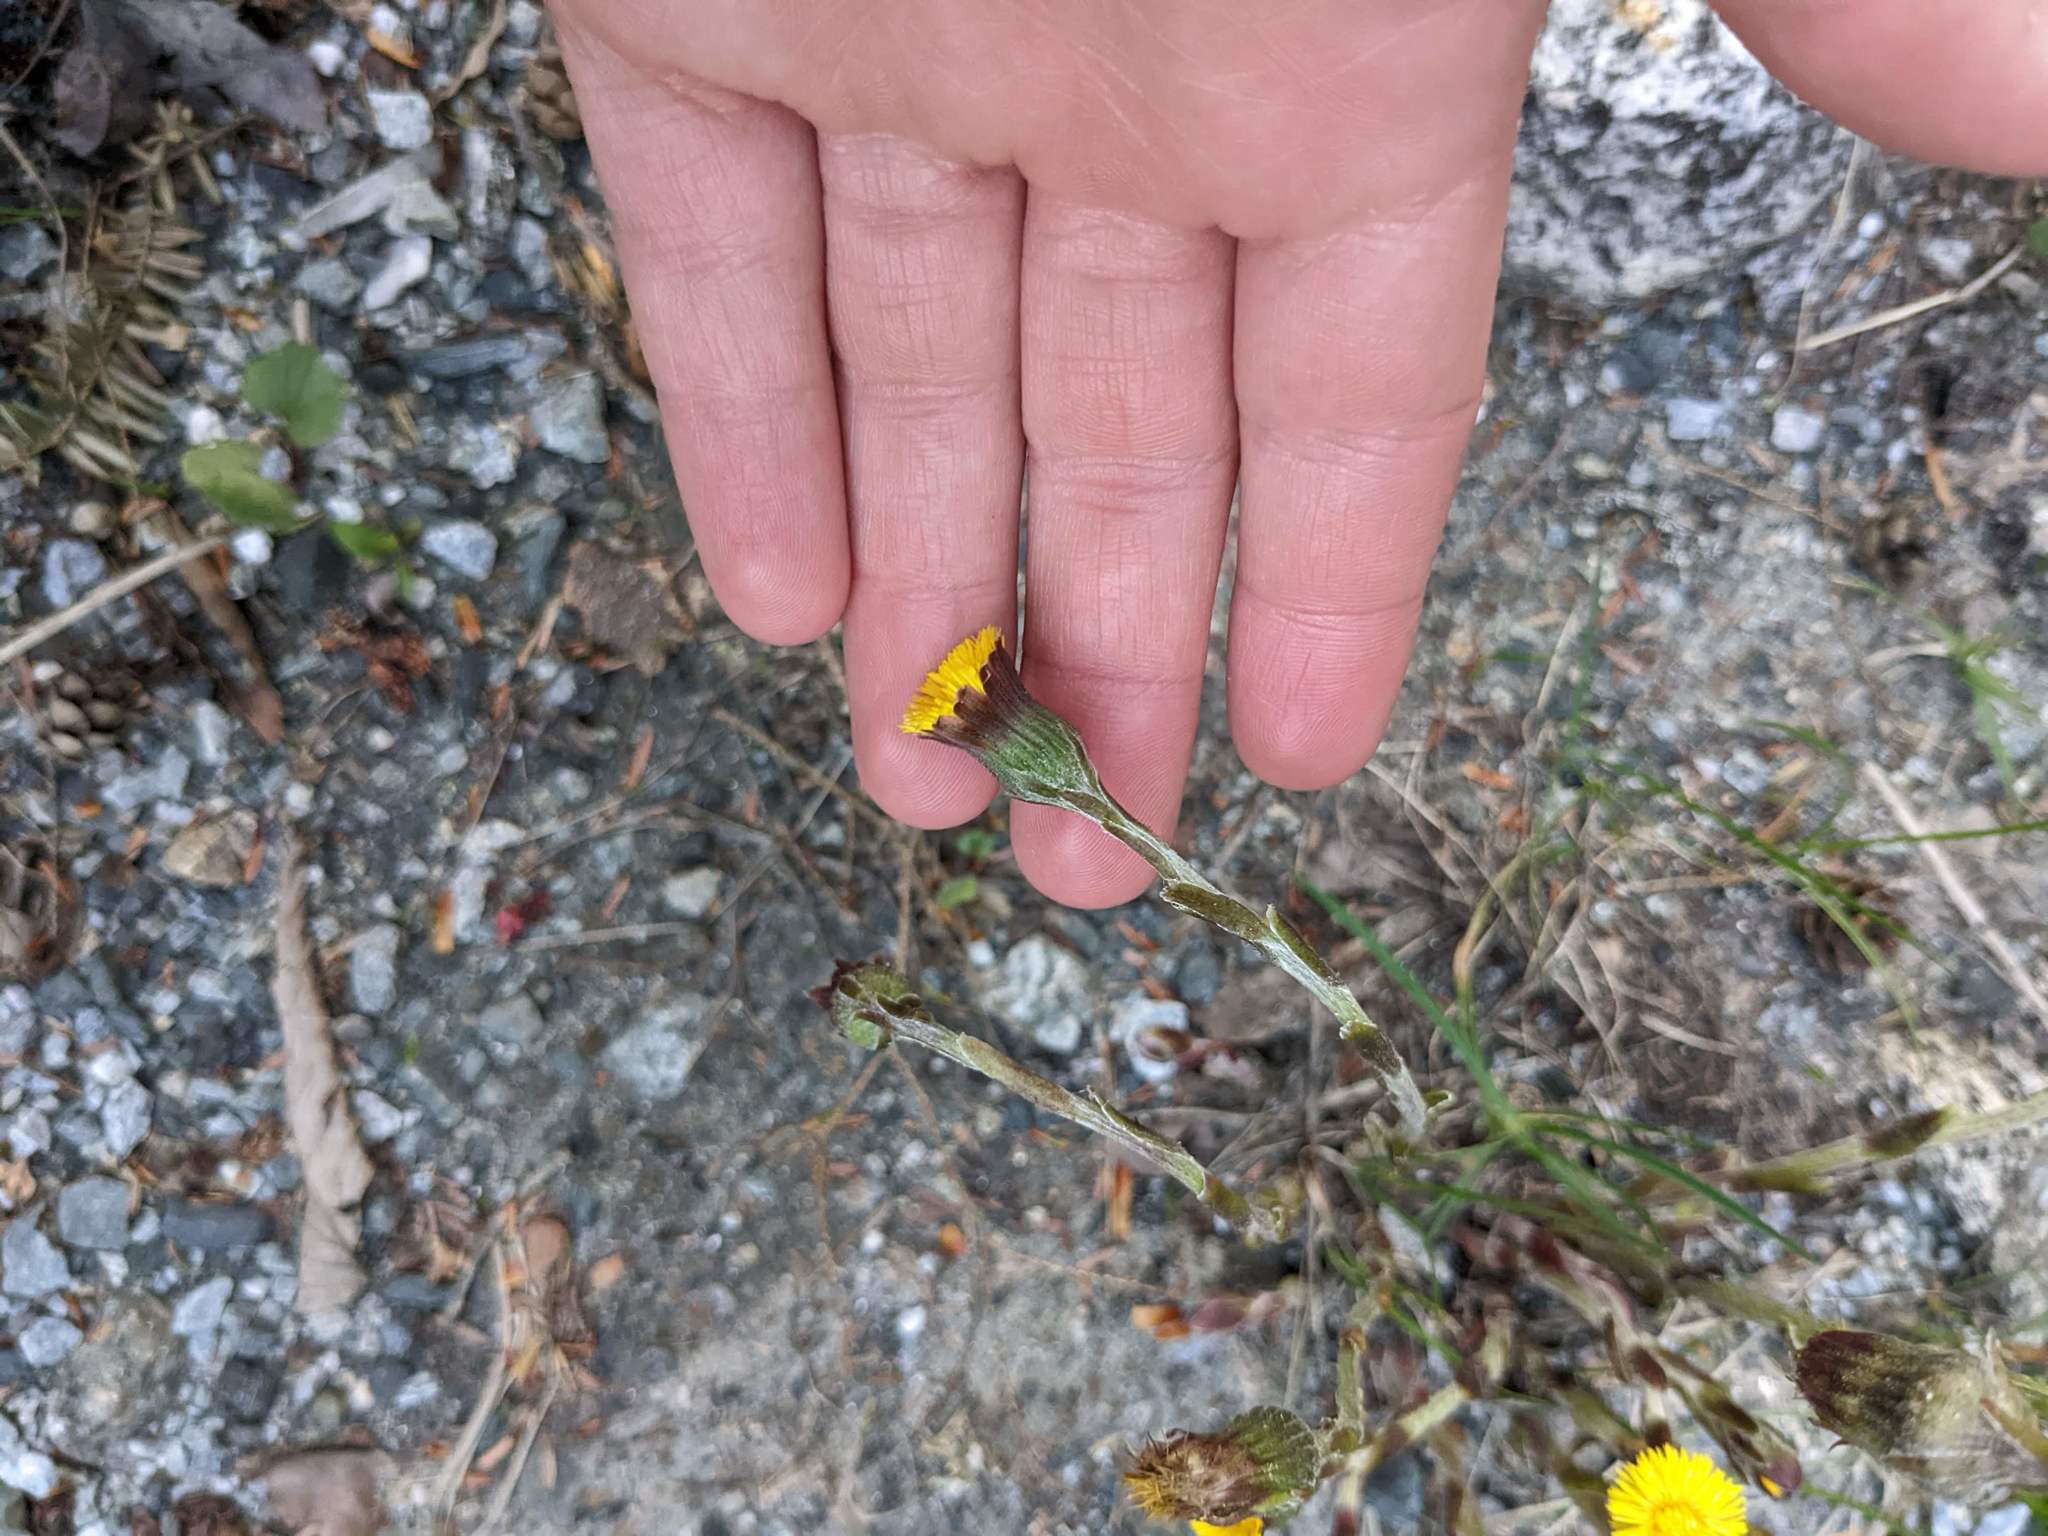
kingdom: Plantae
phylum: Tracheophyta
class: Magnoliopsida
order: Asterales
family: Asteraceae
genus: Tussilago
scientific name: Tussilago farfara
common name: Coltsfoot
